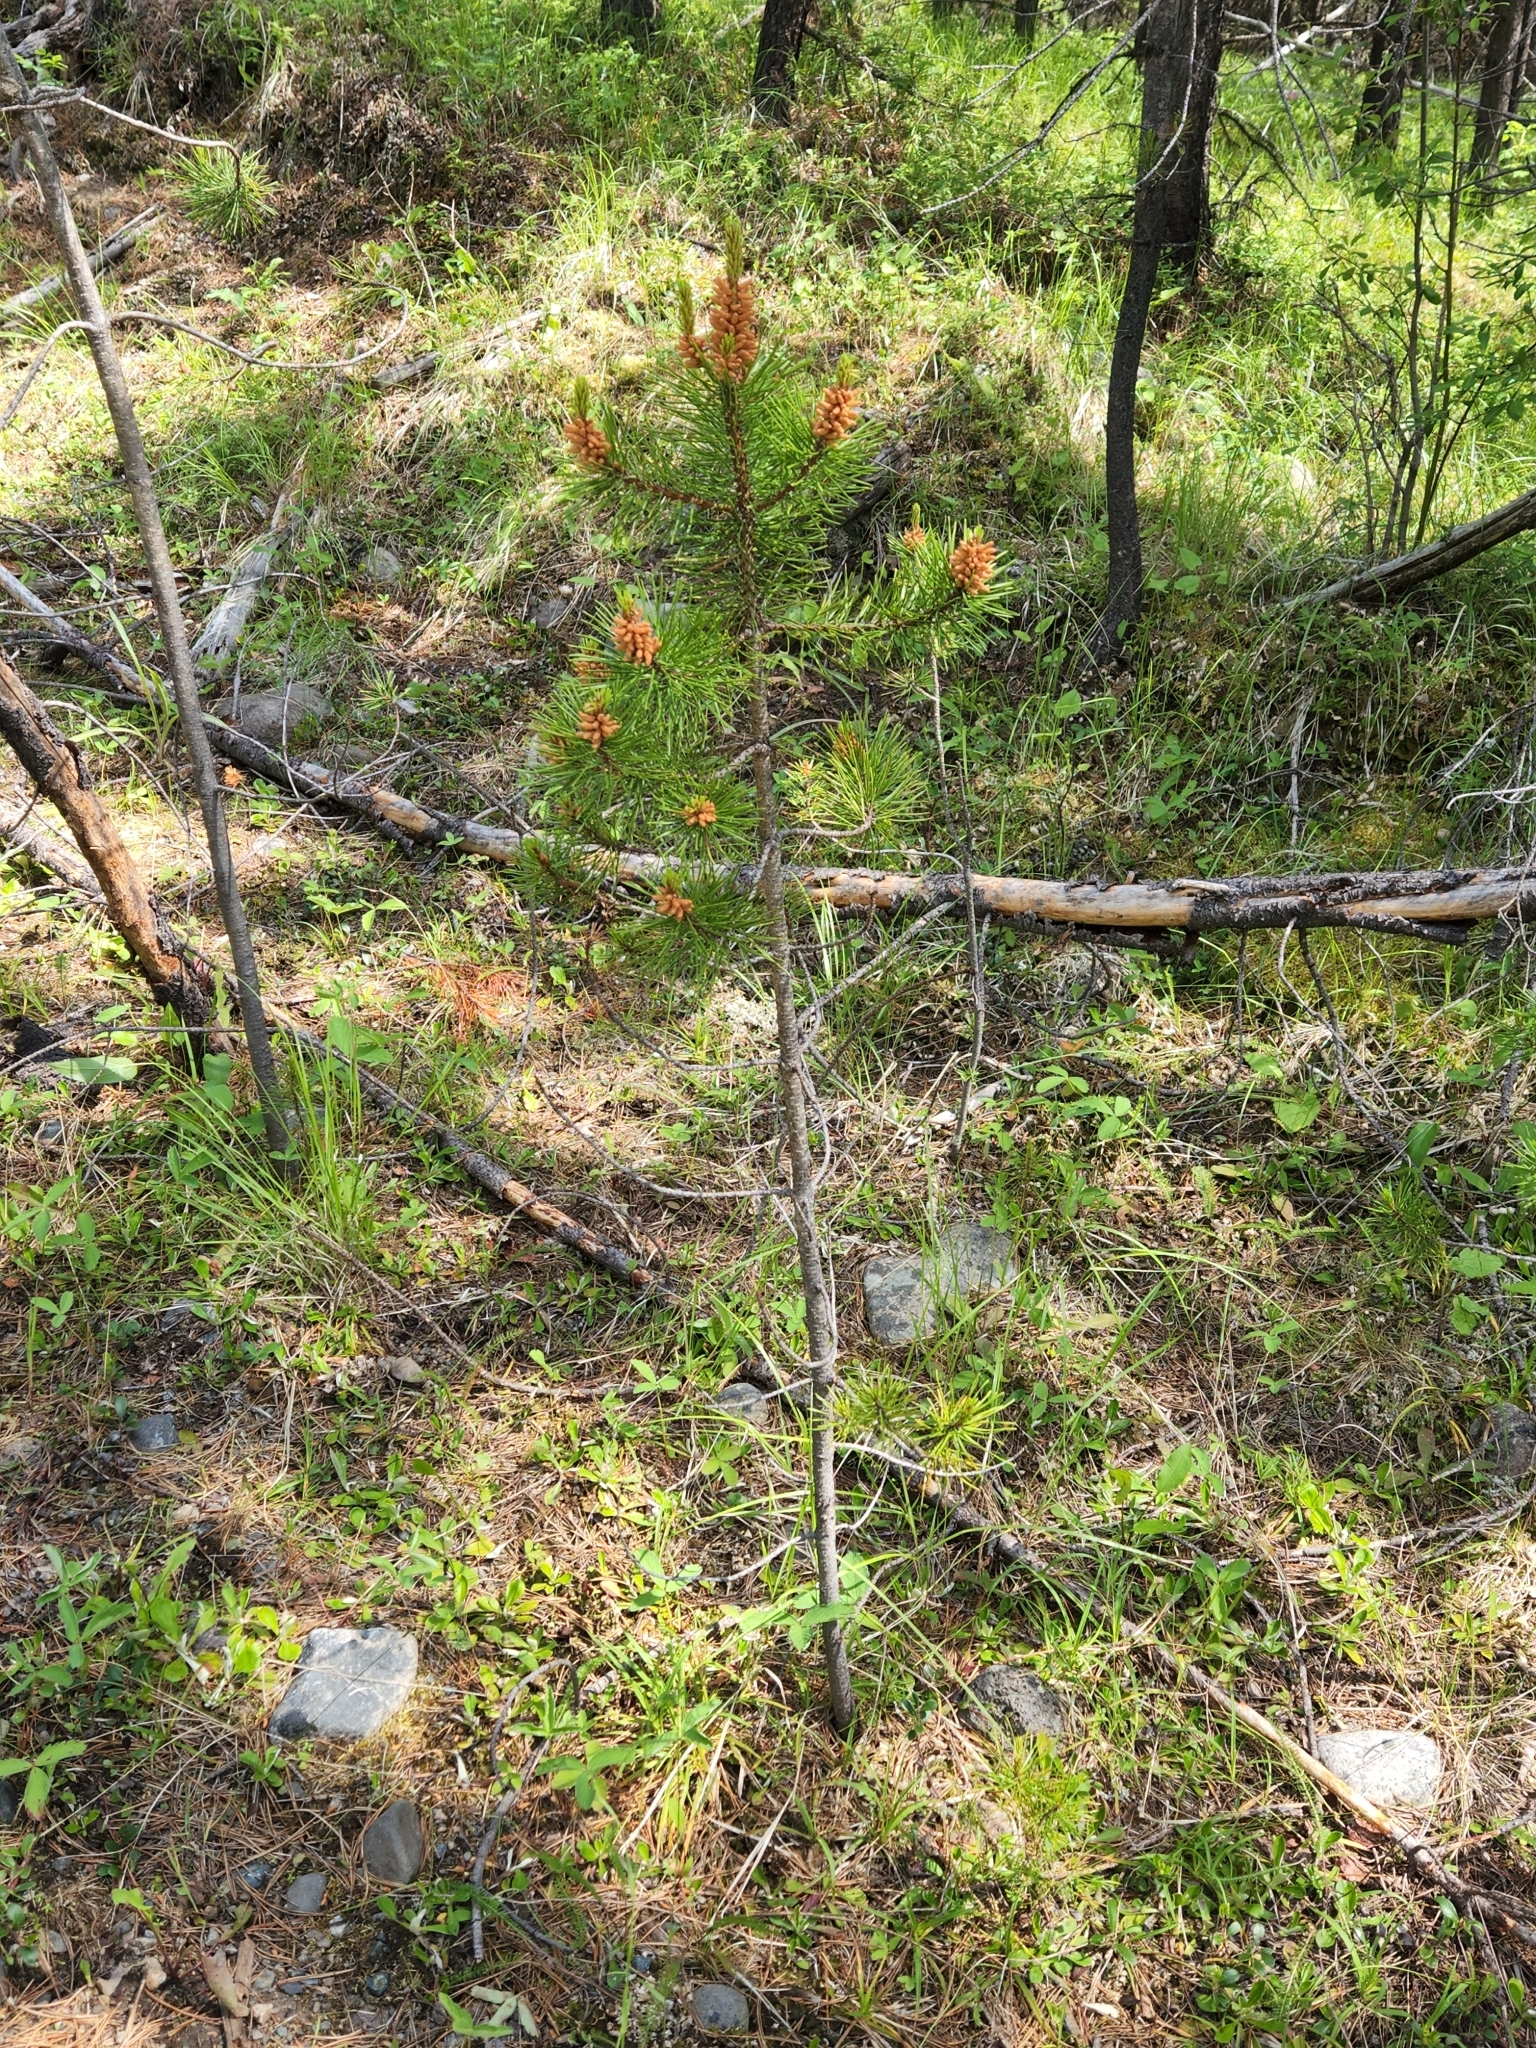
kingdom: Plantae
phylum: Tracheophyta
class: Pinopsida
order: Pinales
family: Pinaceae
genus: Pinus
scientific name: Pinus contorta
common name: Lodgepole pine
